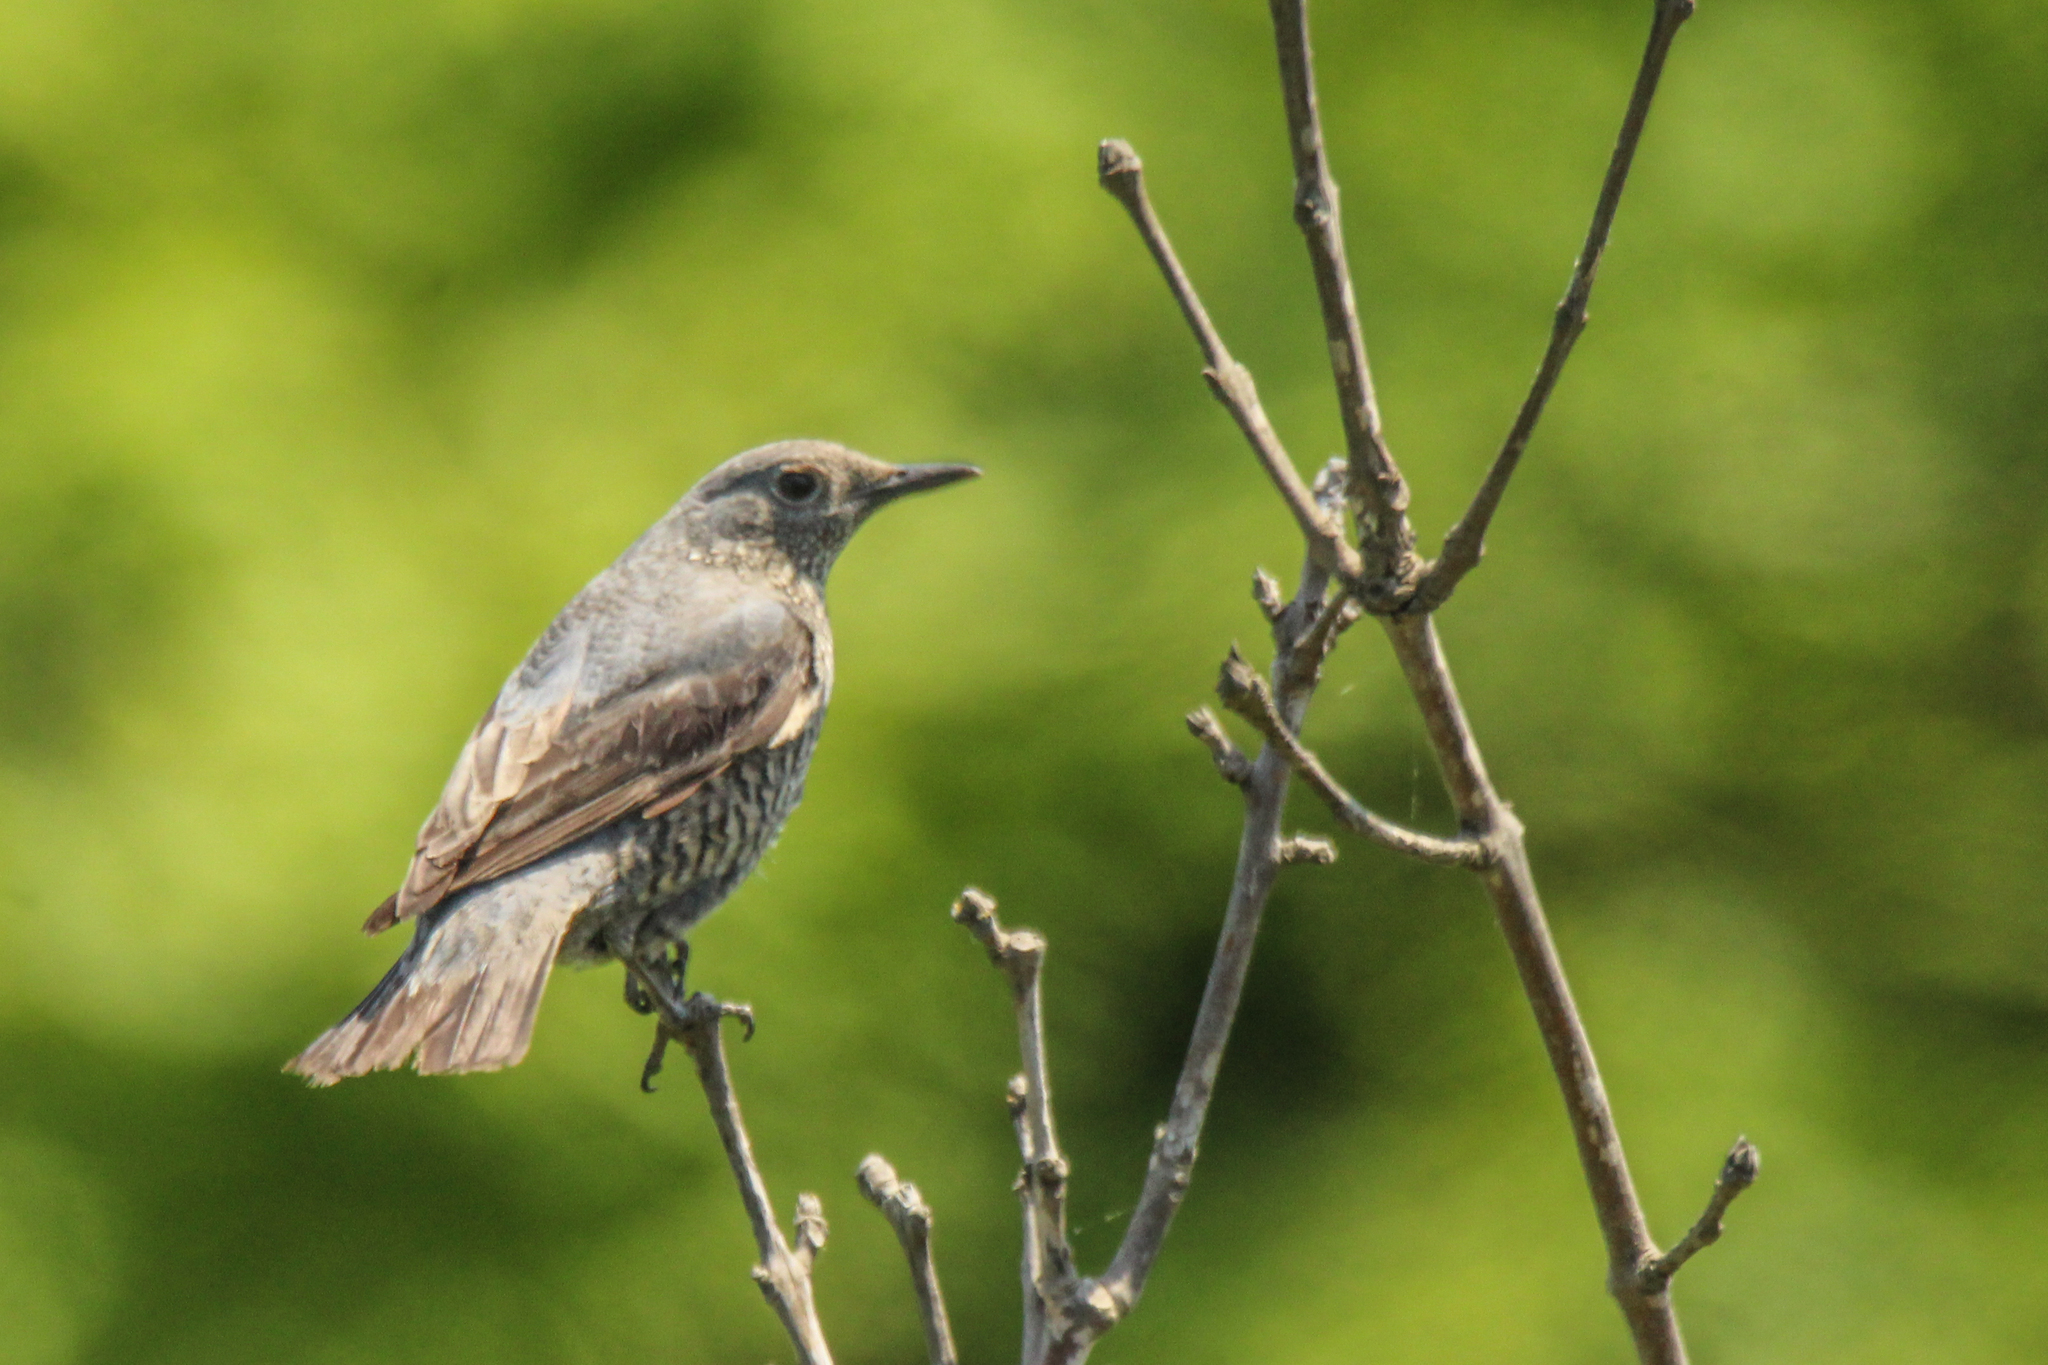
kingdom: Animalia
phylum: Chordata
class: Aves
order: Passeriformes
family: Muscicapidae
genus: Monticola
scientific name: Monticola solitarius
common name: Blue rock thrush
